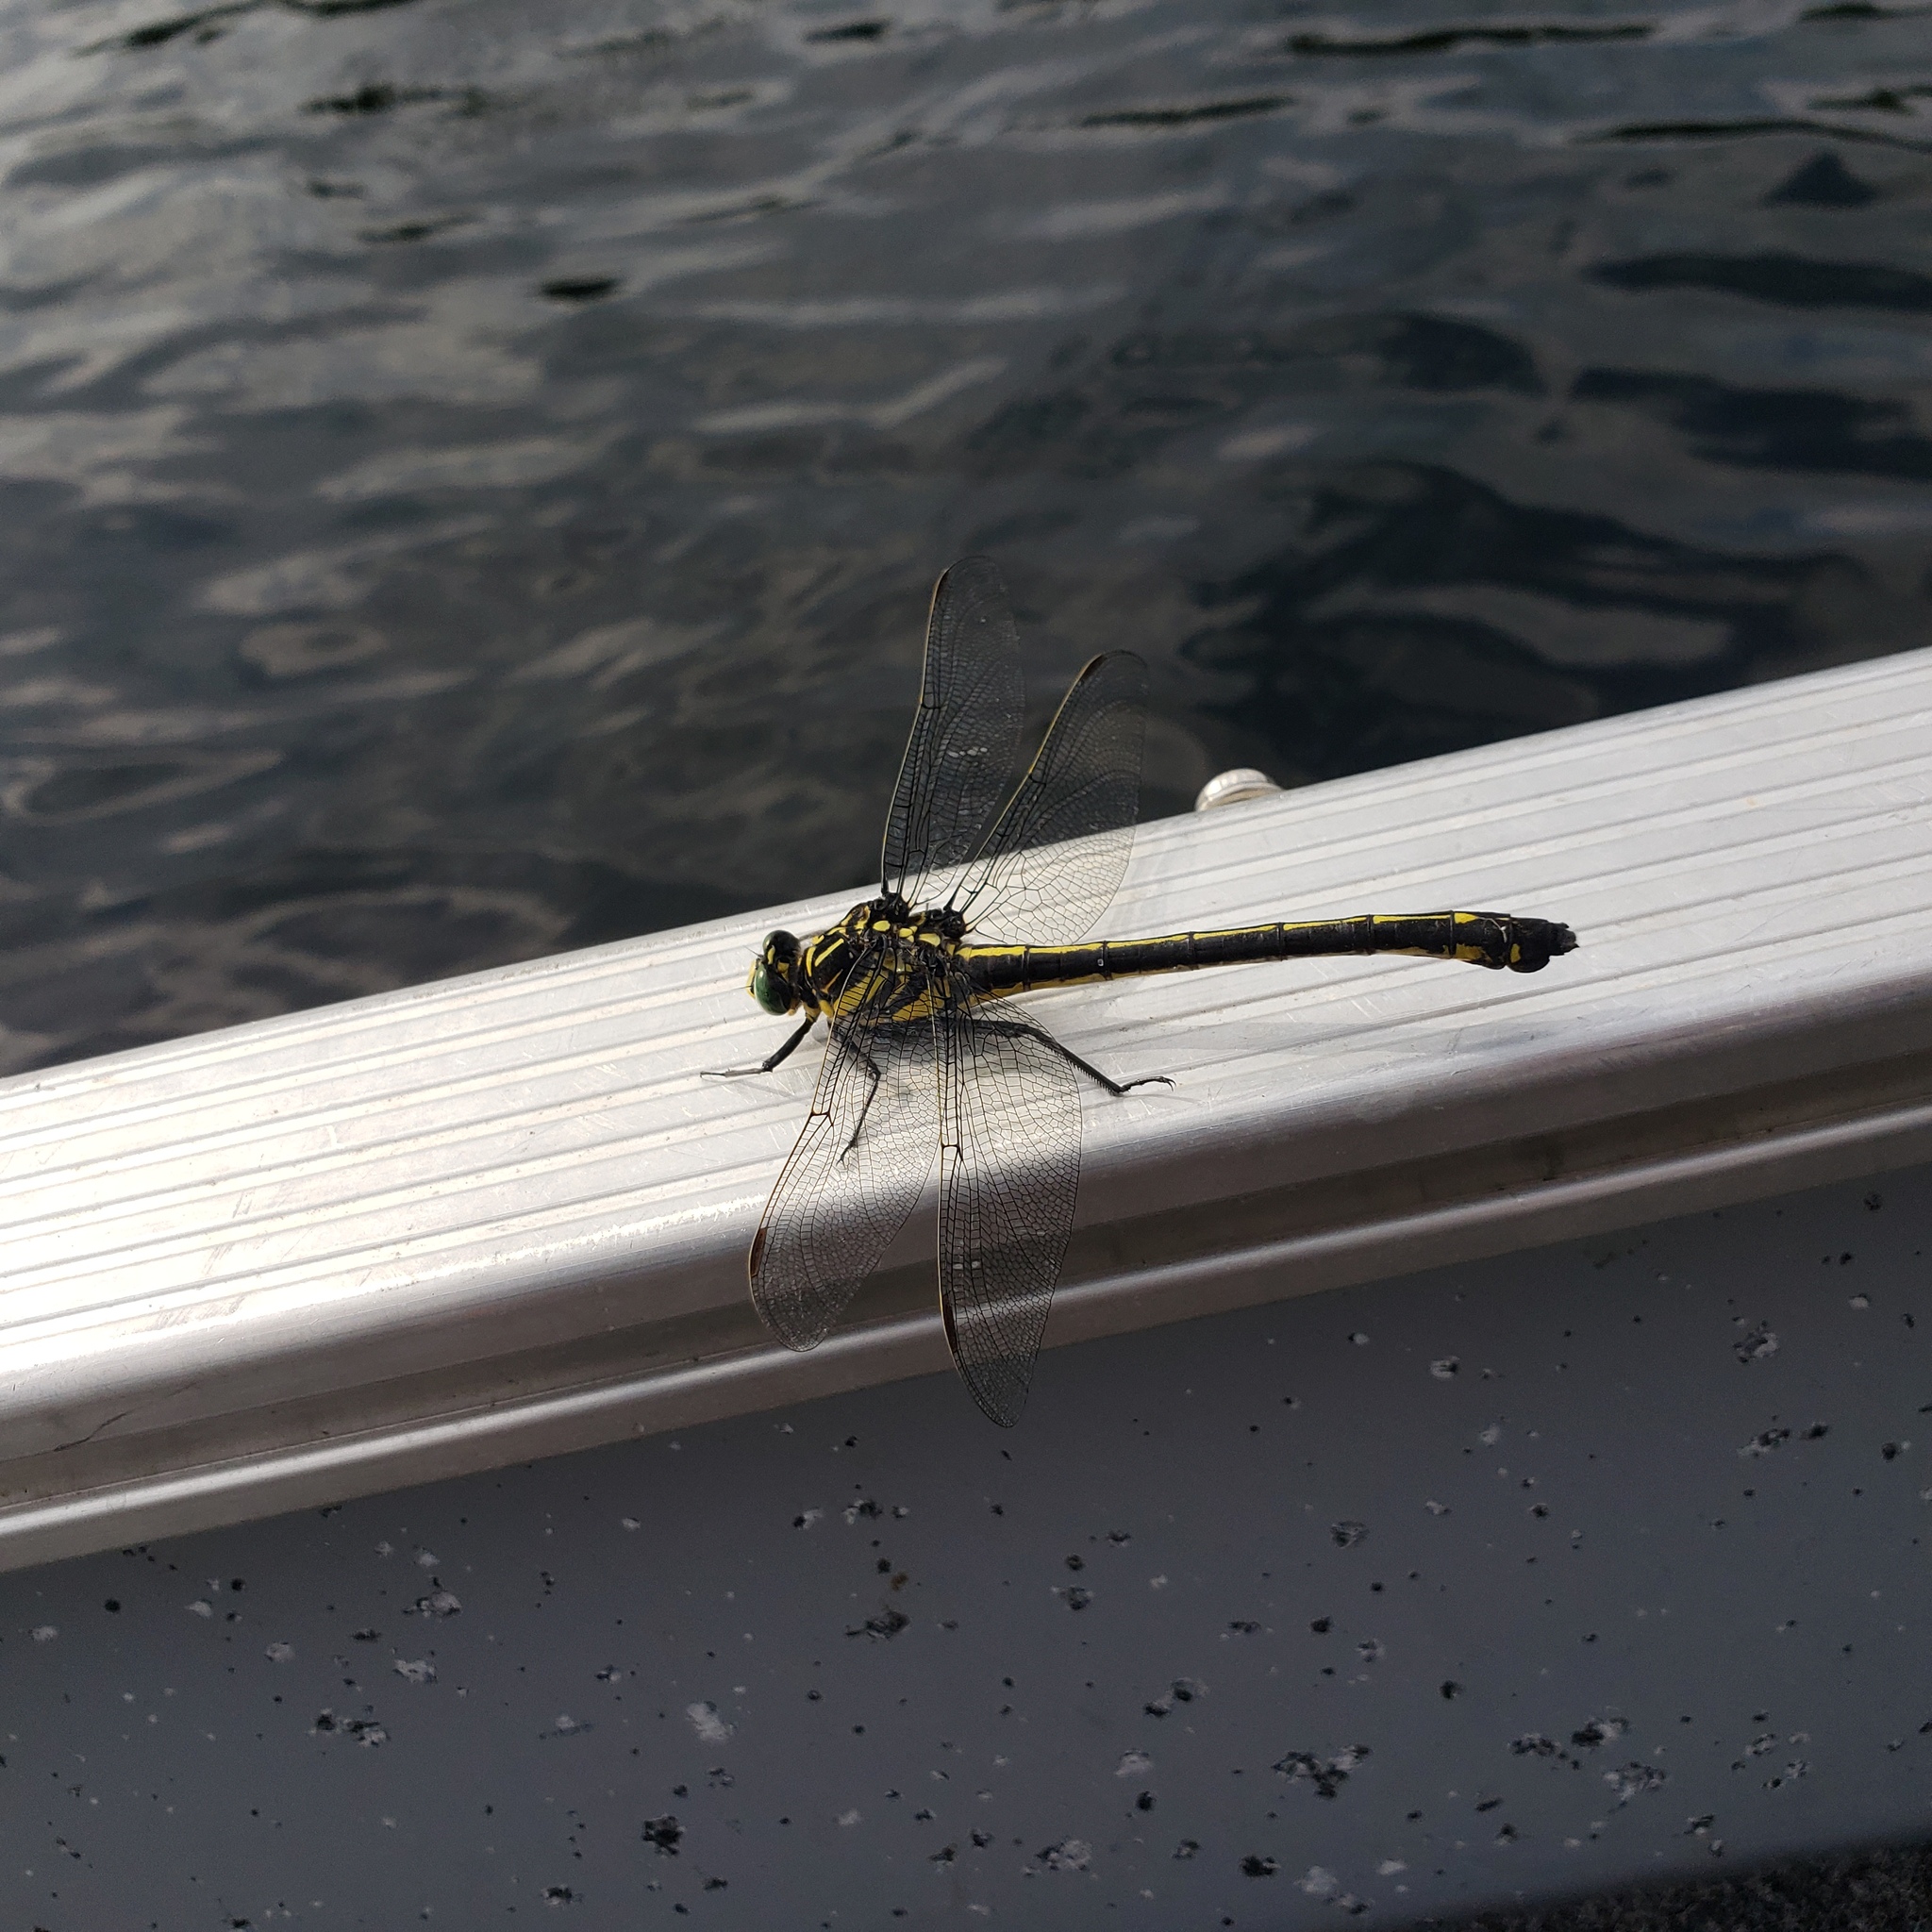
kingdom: Animalia
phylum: Arthropoda
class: Insecta
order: Odonata
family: Gomphidae
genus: Hagenius
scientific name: Hagenius brevistylus
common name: Dragonhunter
